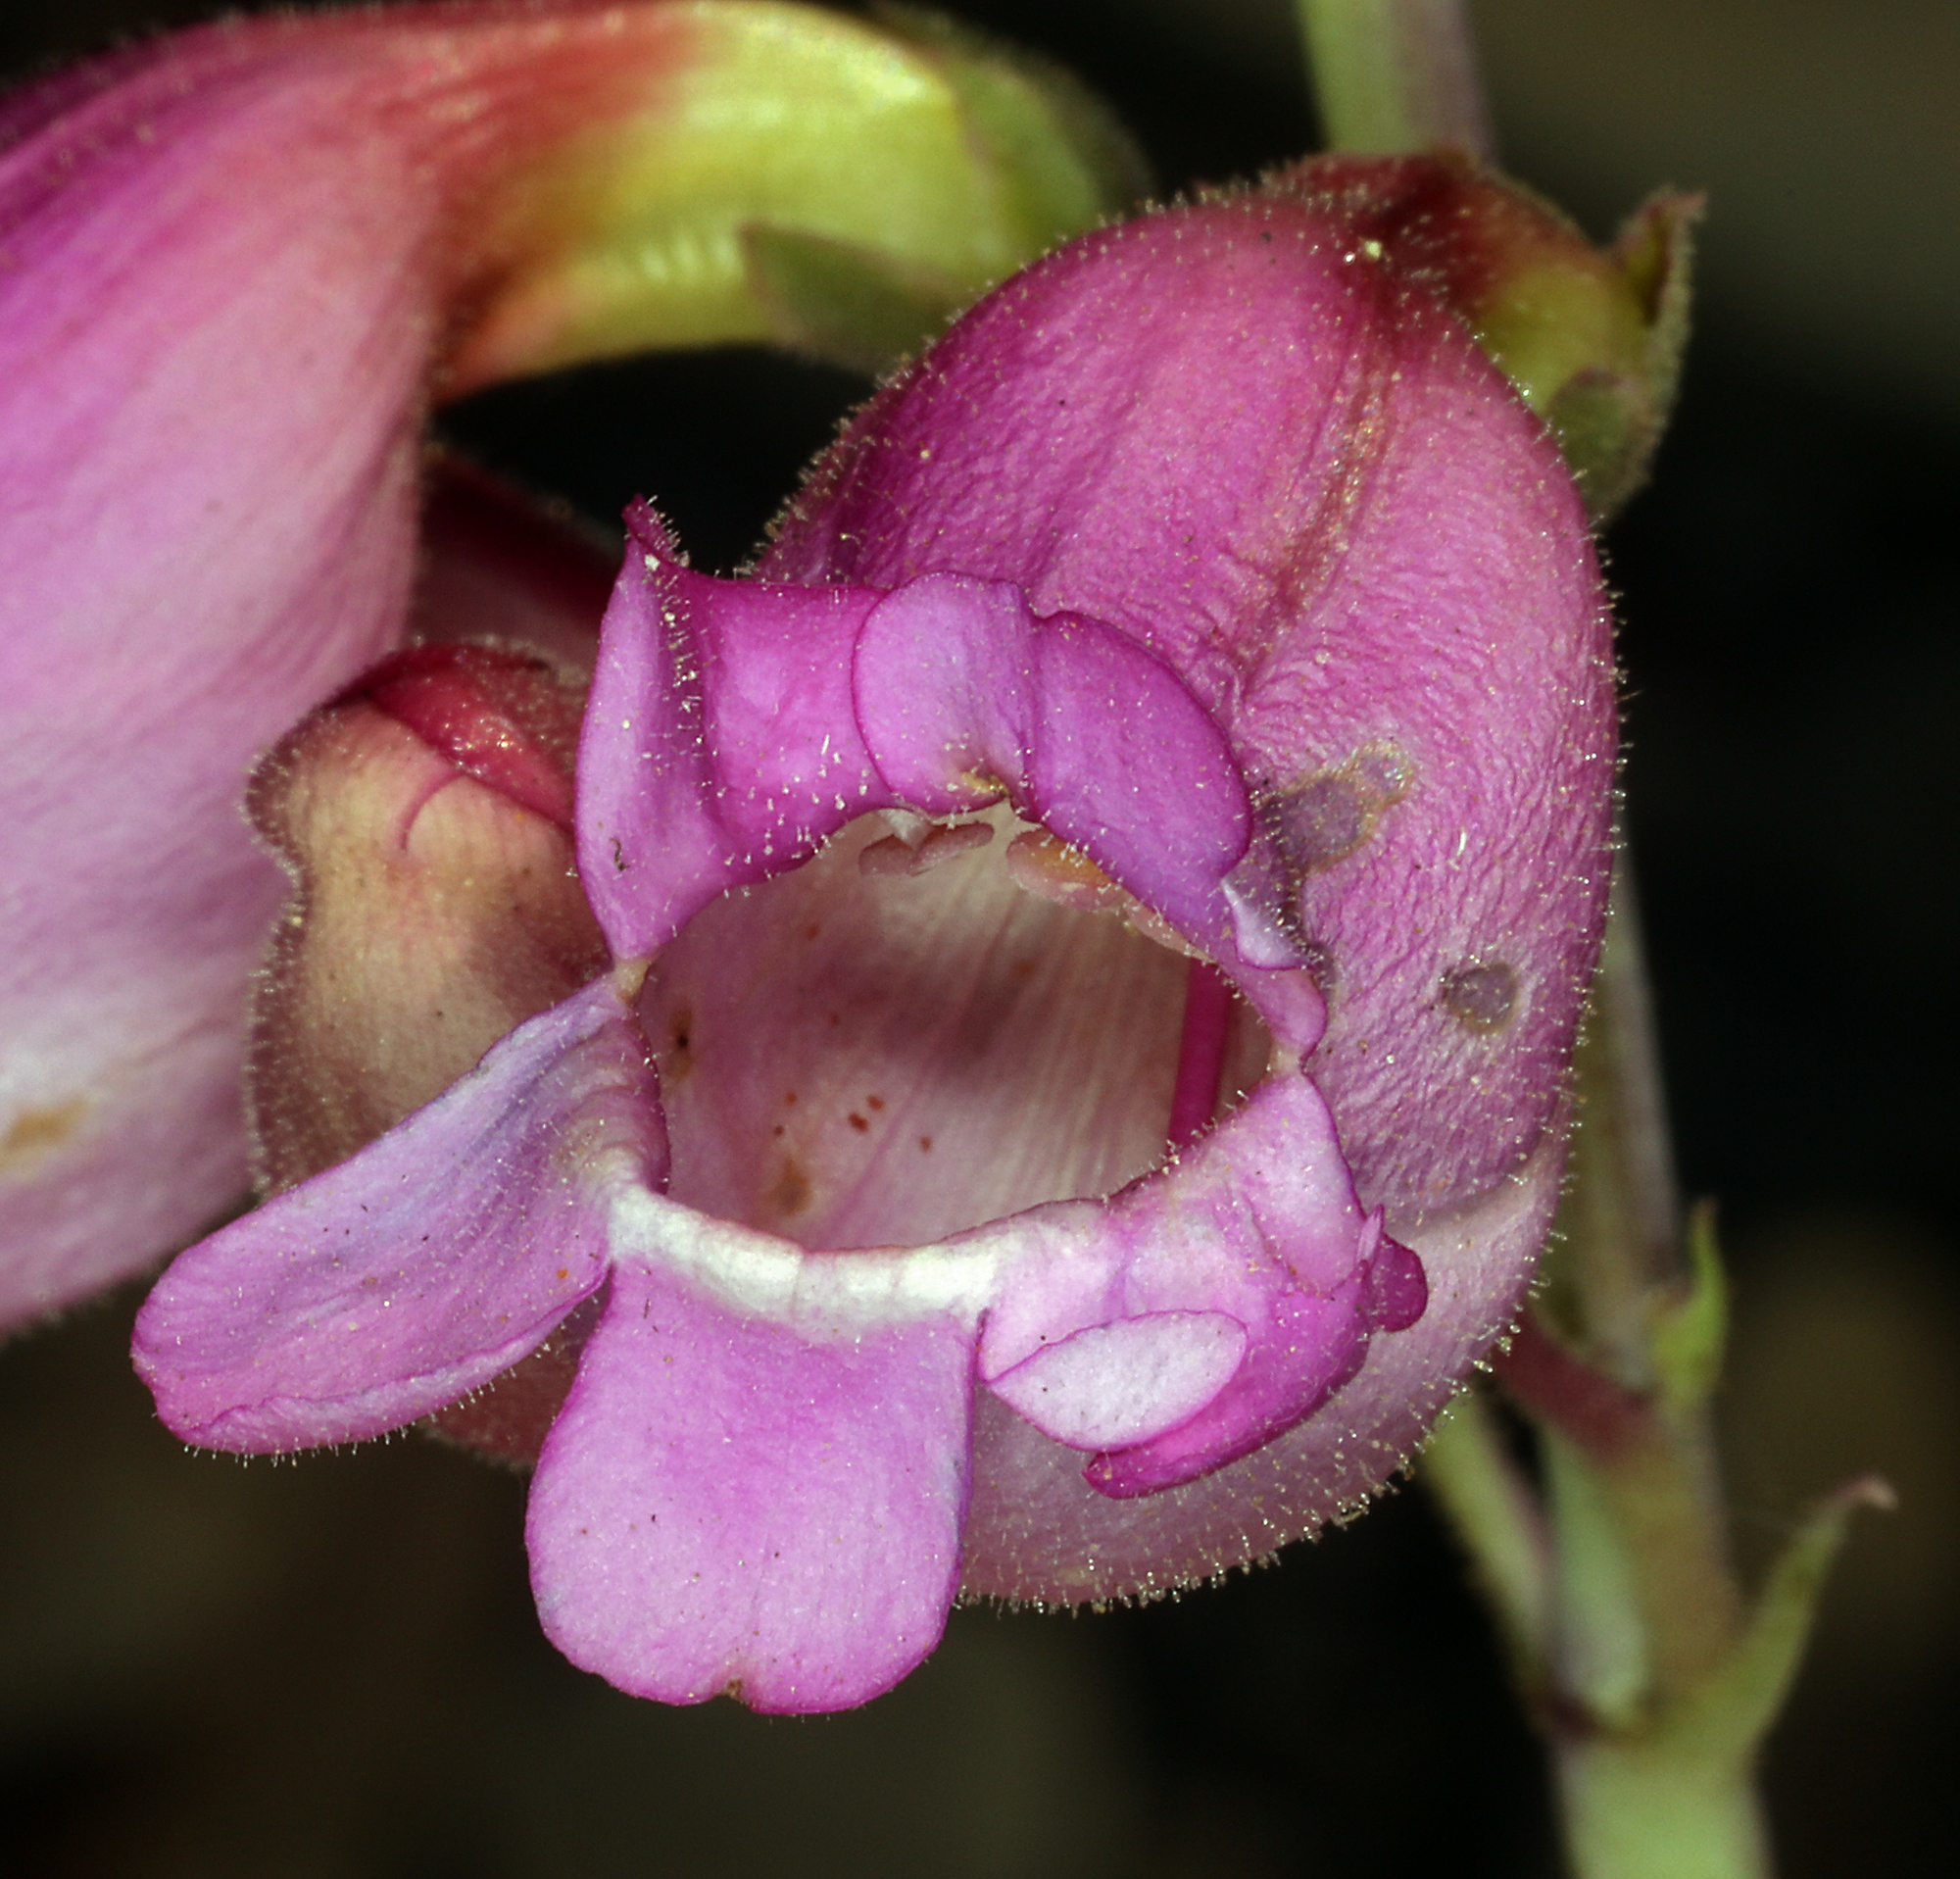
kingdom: Plantae
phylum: Tracheophyta
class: Magnoliopsida
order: Lamiales
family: Plantaginaceae
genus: Penstemon
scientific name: Penstemon floridus
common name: Panamint penstemon
